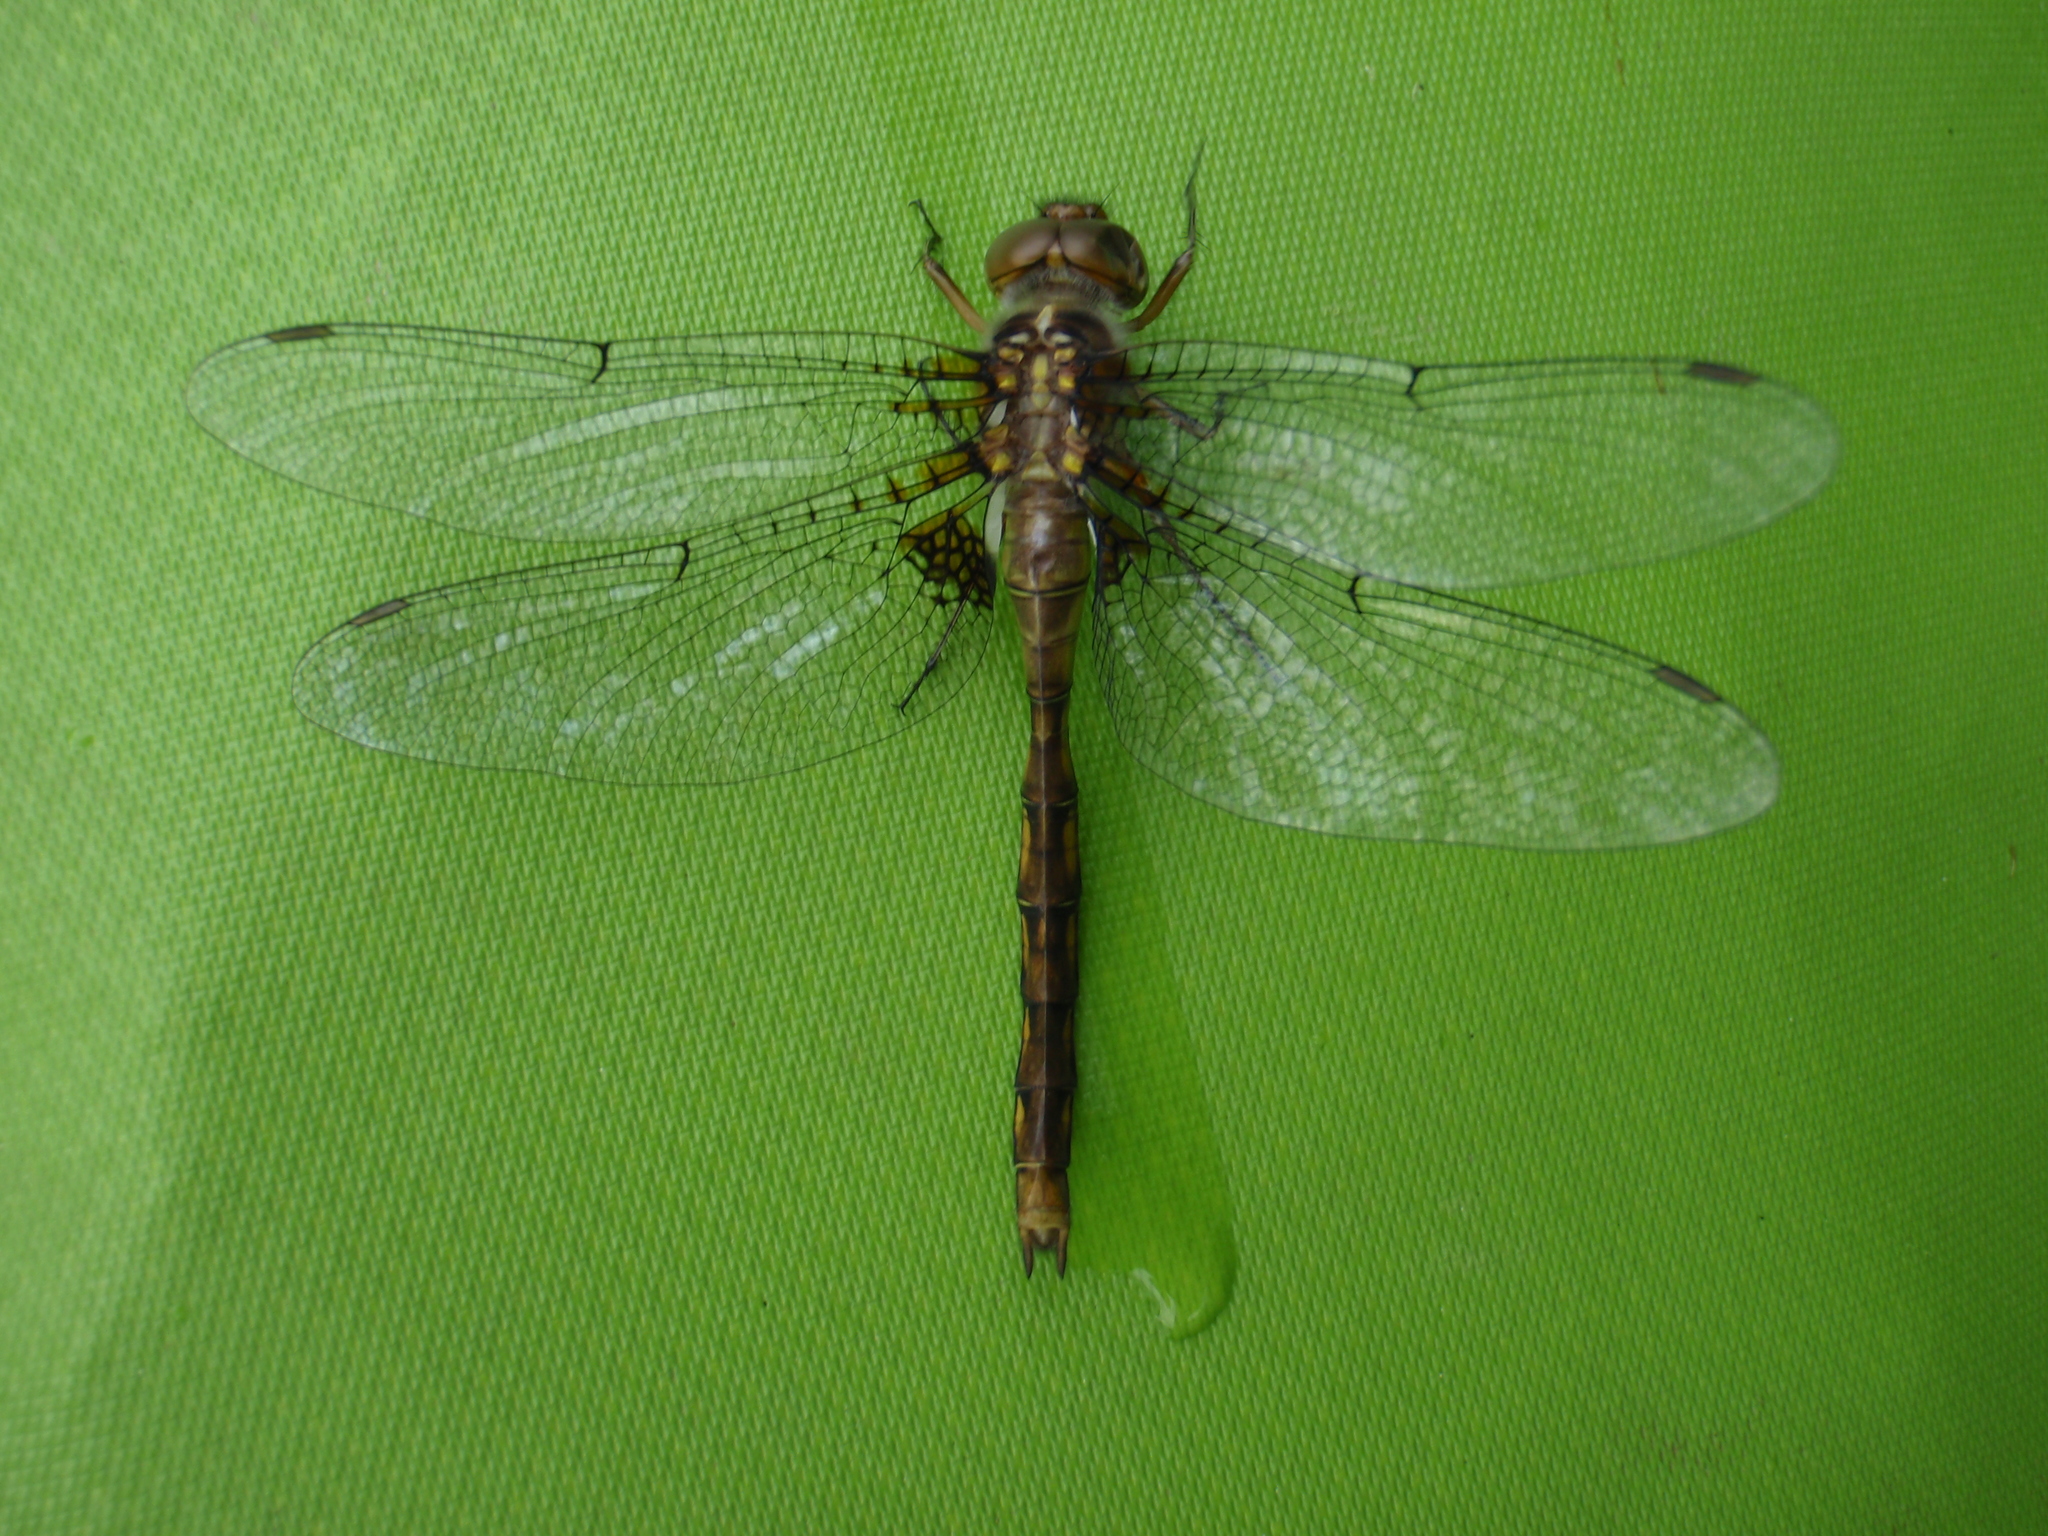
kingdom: Animalia
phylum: Arthropoda
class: Insecta
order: Odonata
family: Corduliidae
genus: Neurocordulia
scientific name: Neurocordulia yamaskanensis
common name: Stygian shadowdragon
